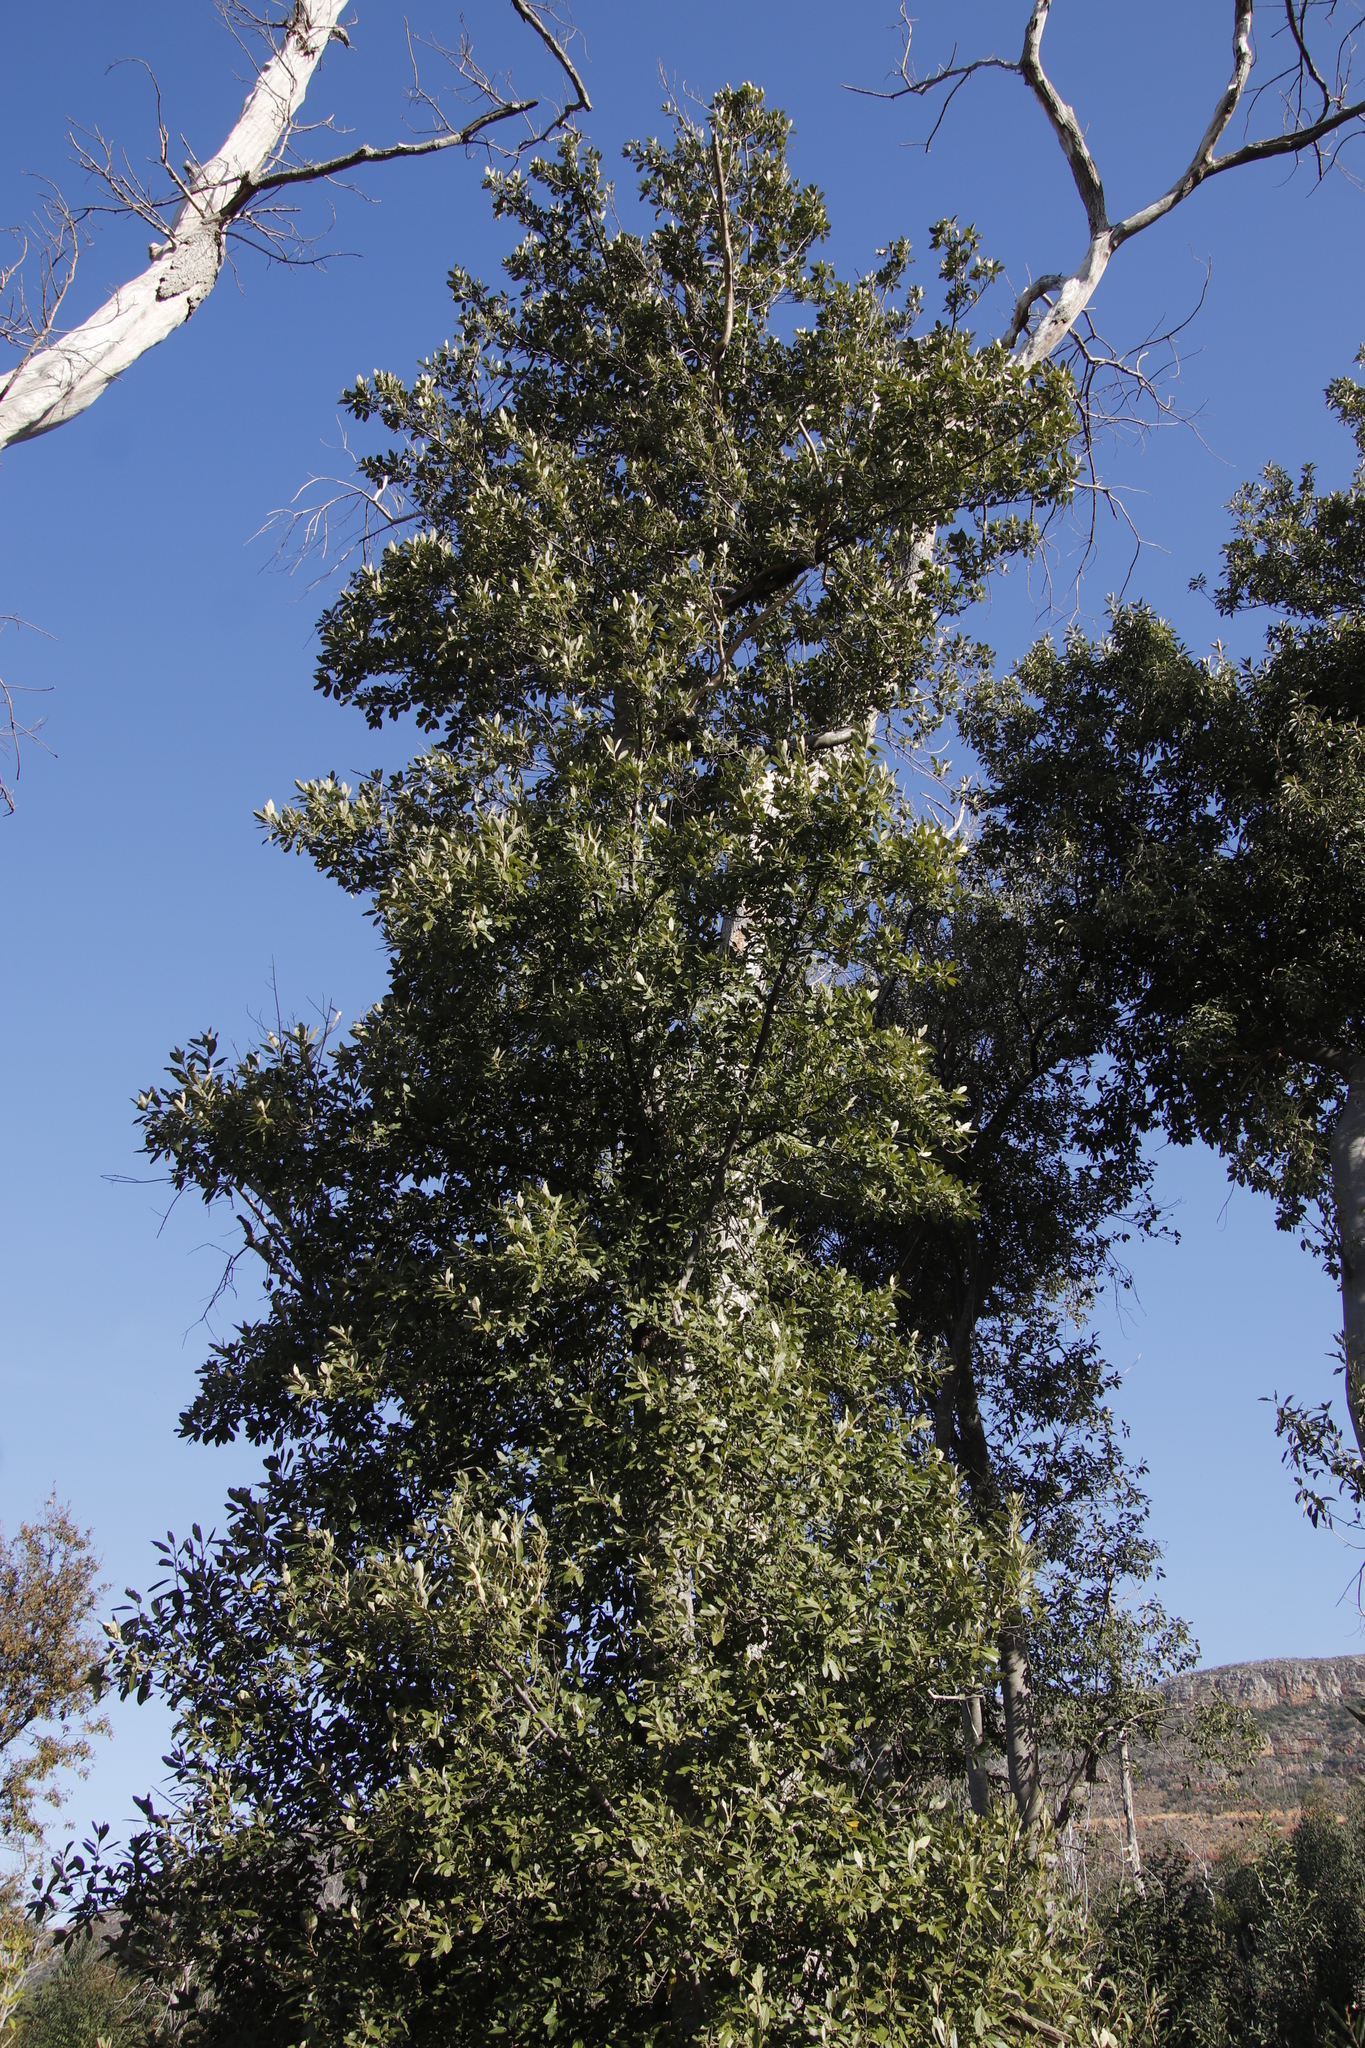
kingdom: Plantae
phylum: Tracheophyta
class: Magnoliopsida
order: Malpighiales
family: Achariaceae
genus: Kiggelaria
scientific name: Kiggelaria africana
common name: Wild peach
